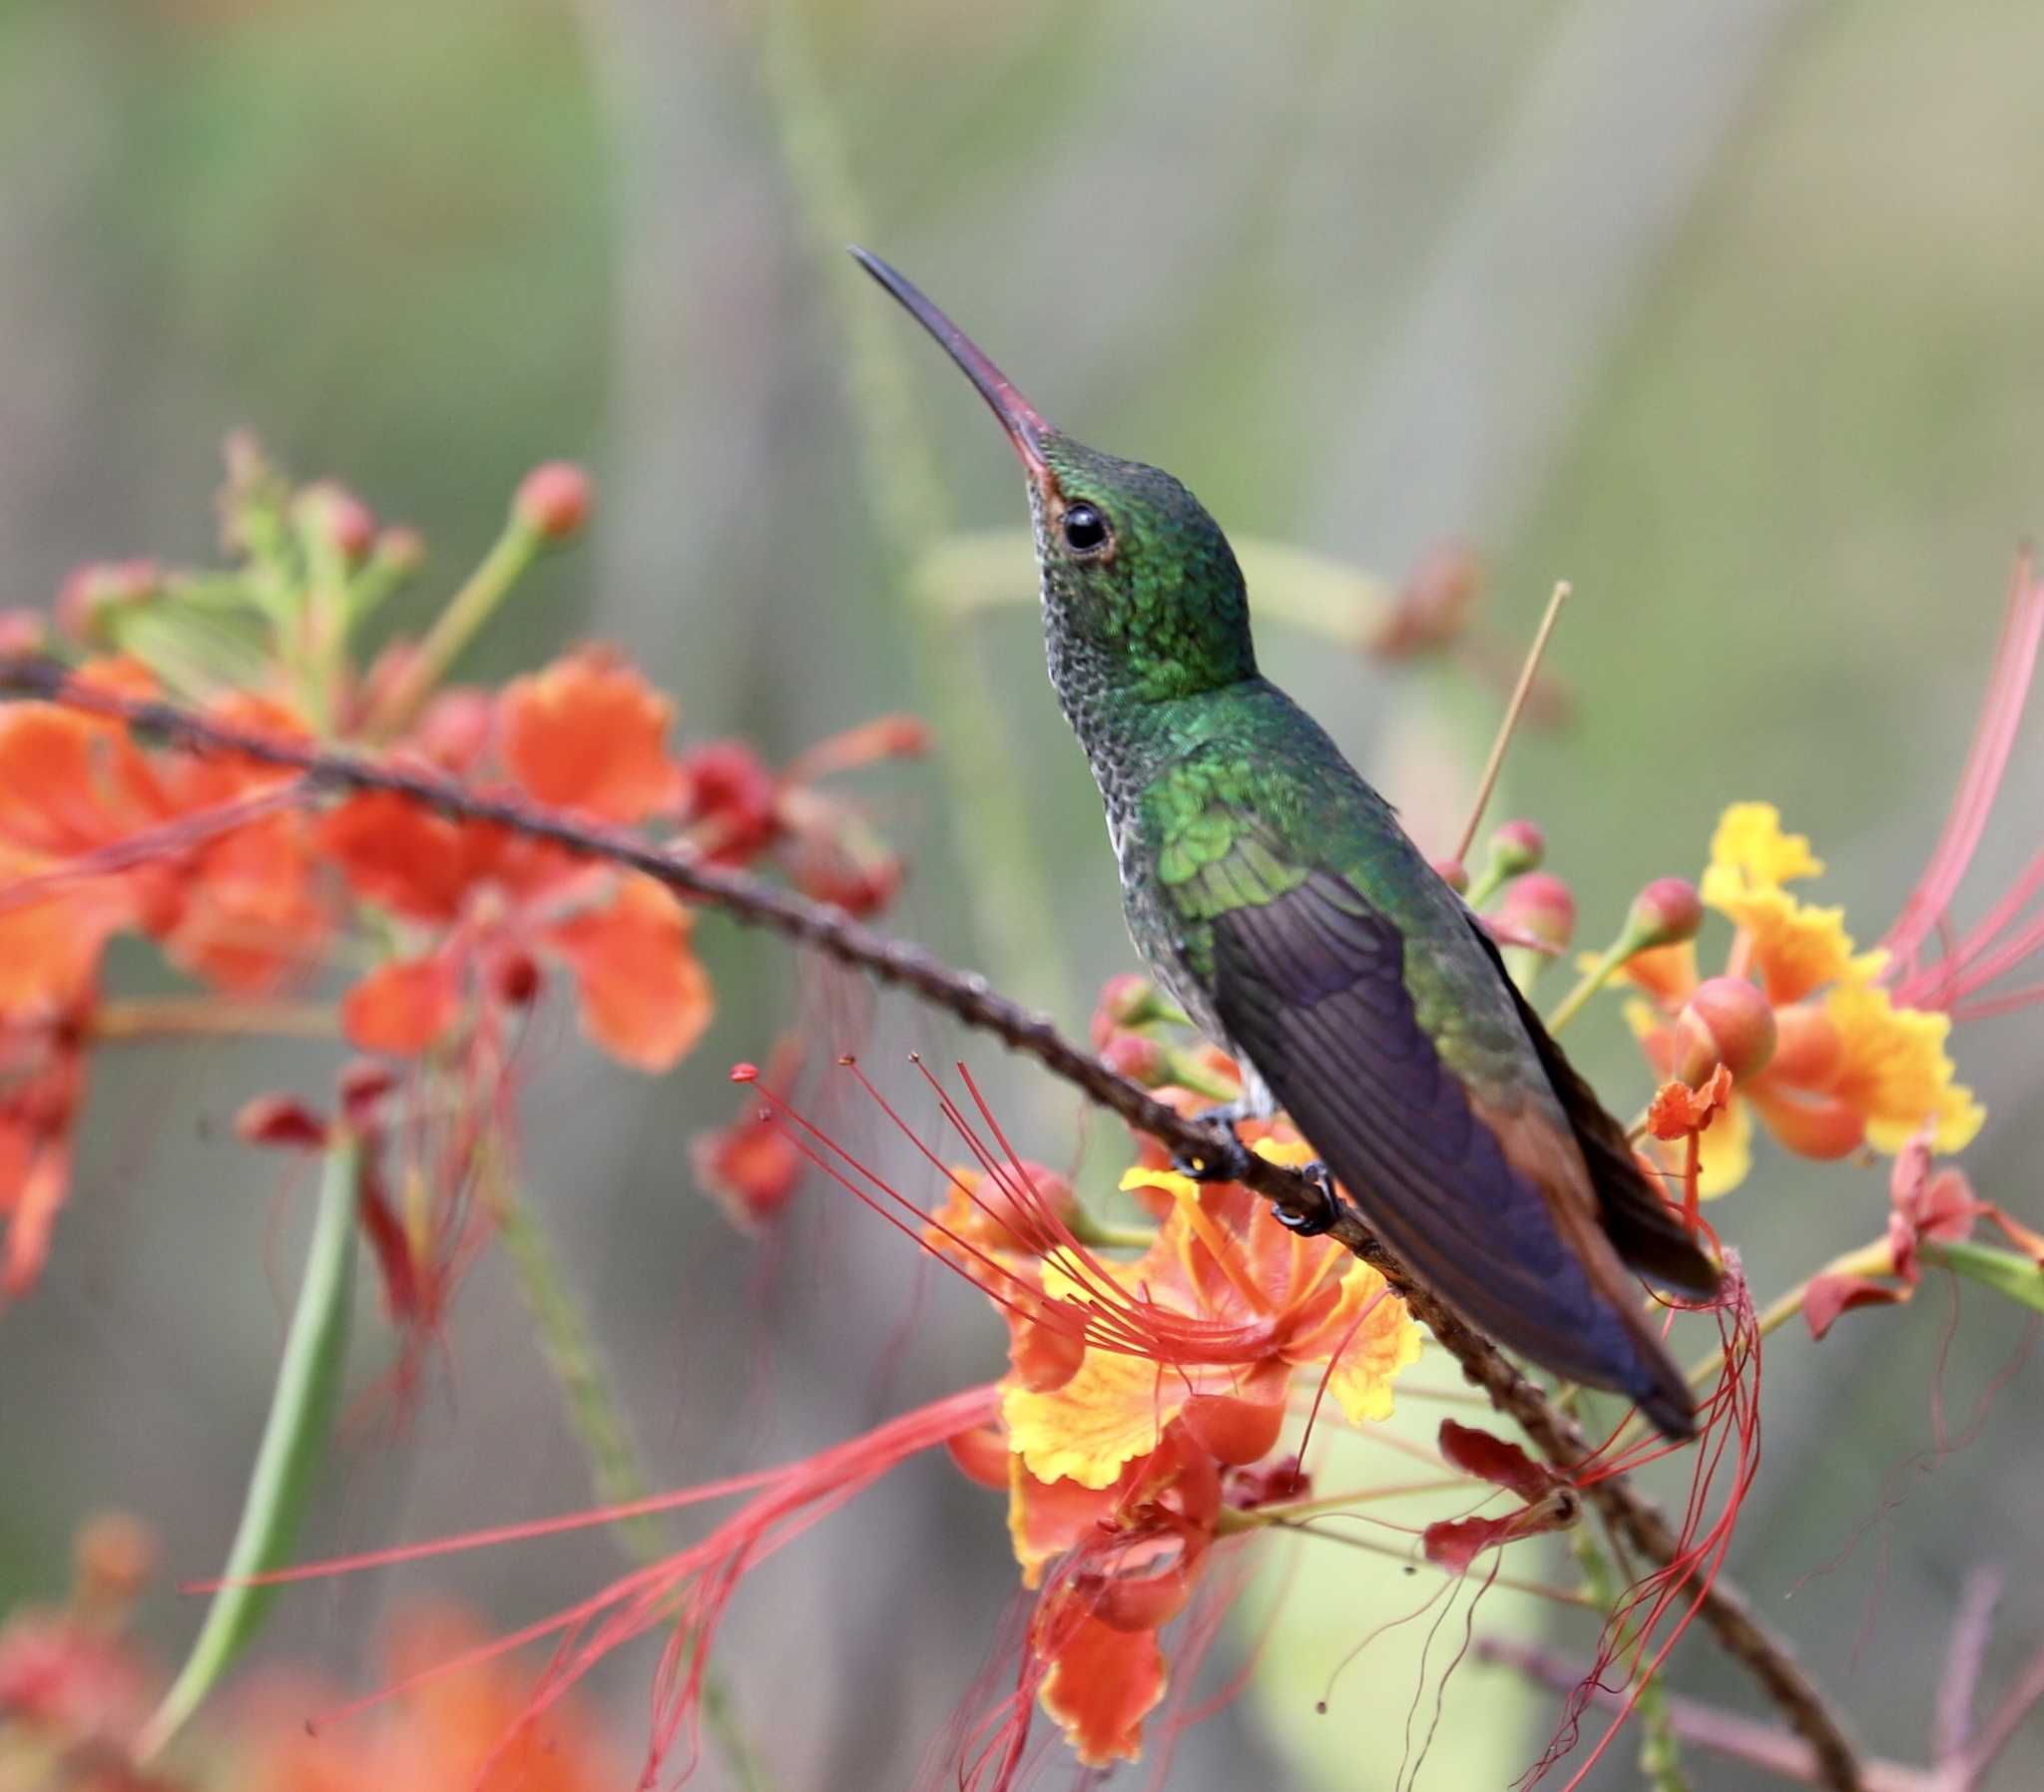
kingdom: Animalia
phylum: Chordata
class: Aves
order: Apodiformes
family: Trochilidae
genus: Amazilia
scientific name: Amazilia tzacatl
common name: Rufous-tailed hummingbird
